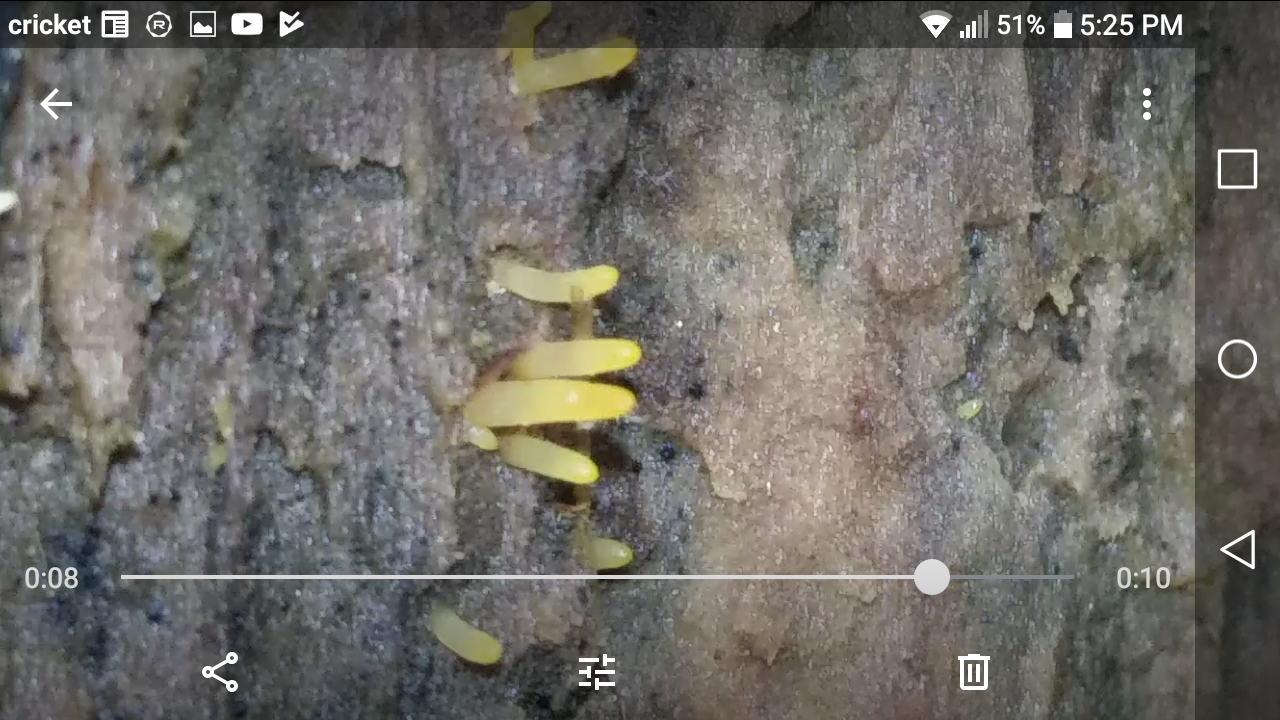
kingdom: Fungi
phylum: Basidiomycota
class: Dacrymycetes
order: Dacrymycetales
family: Dacrymycetaceae
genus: Calocera
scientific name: Calocera cornea
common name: Small stagshorn
